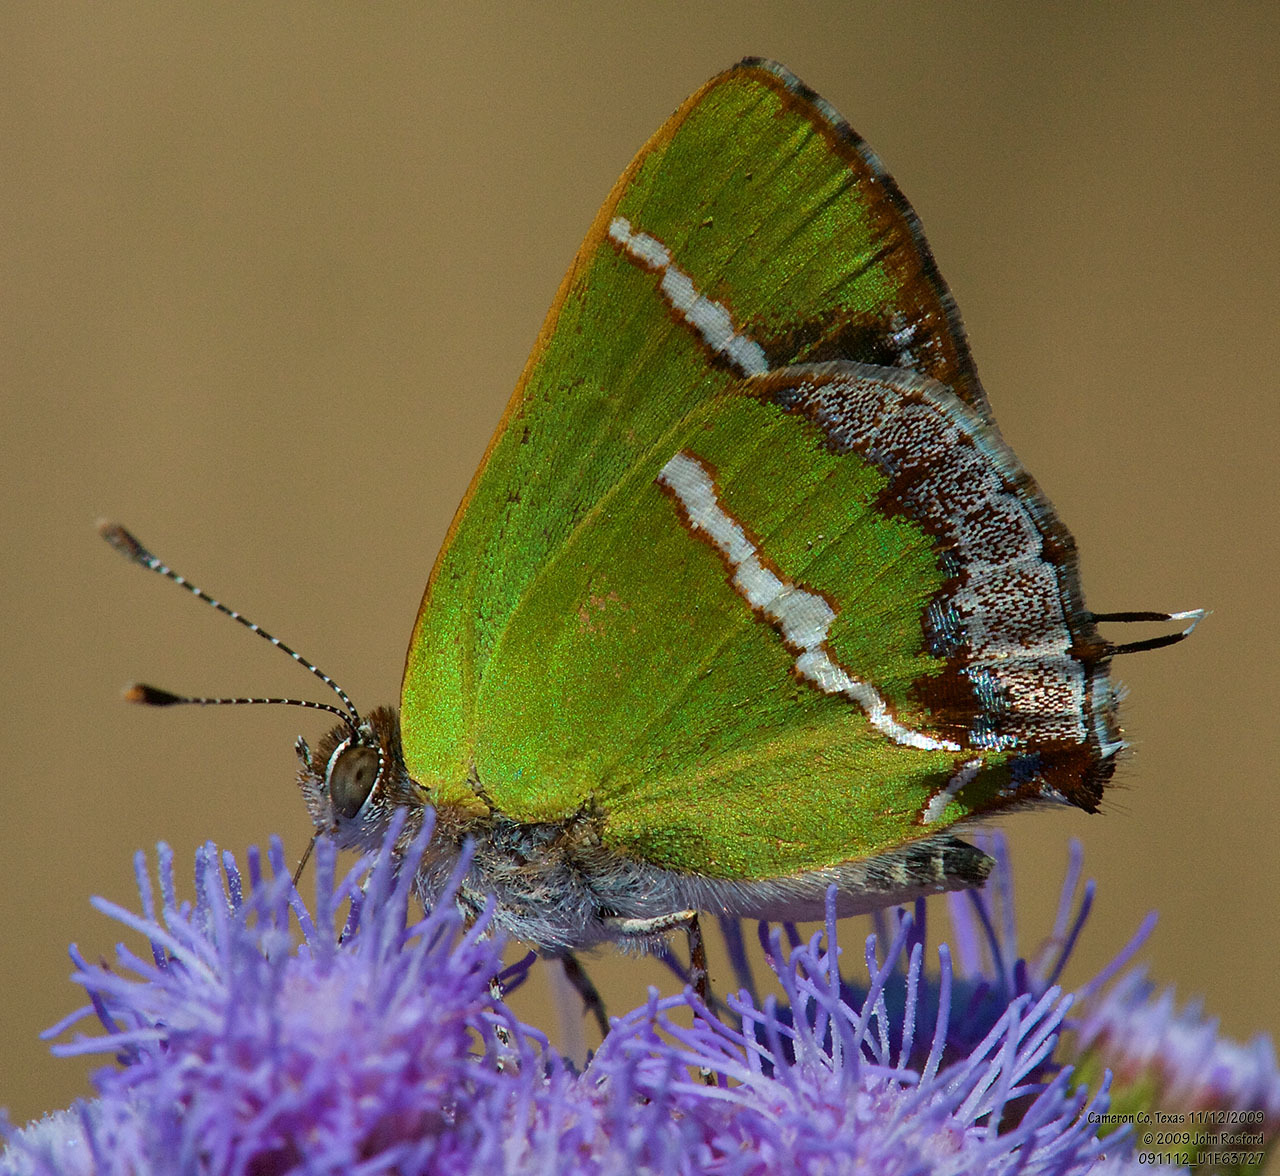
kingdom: Animalia
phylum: Arthropoda
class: Insecta
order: Lepidoptera
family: Lycaenidae
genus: Chlorostrymon
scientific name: Chlorostrymon simaethis
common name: Silver-banded hairstreak
